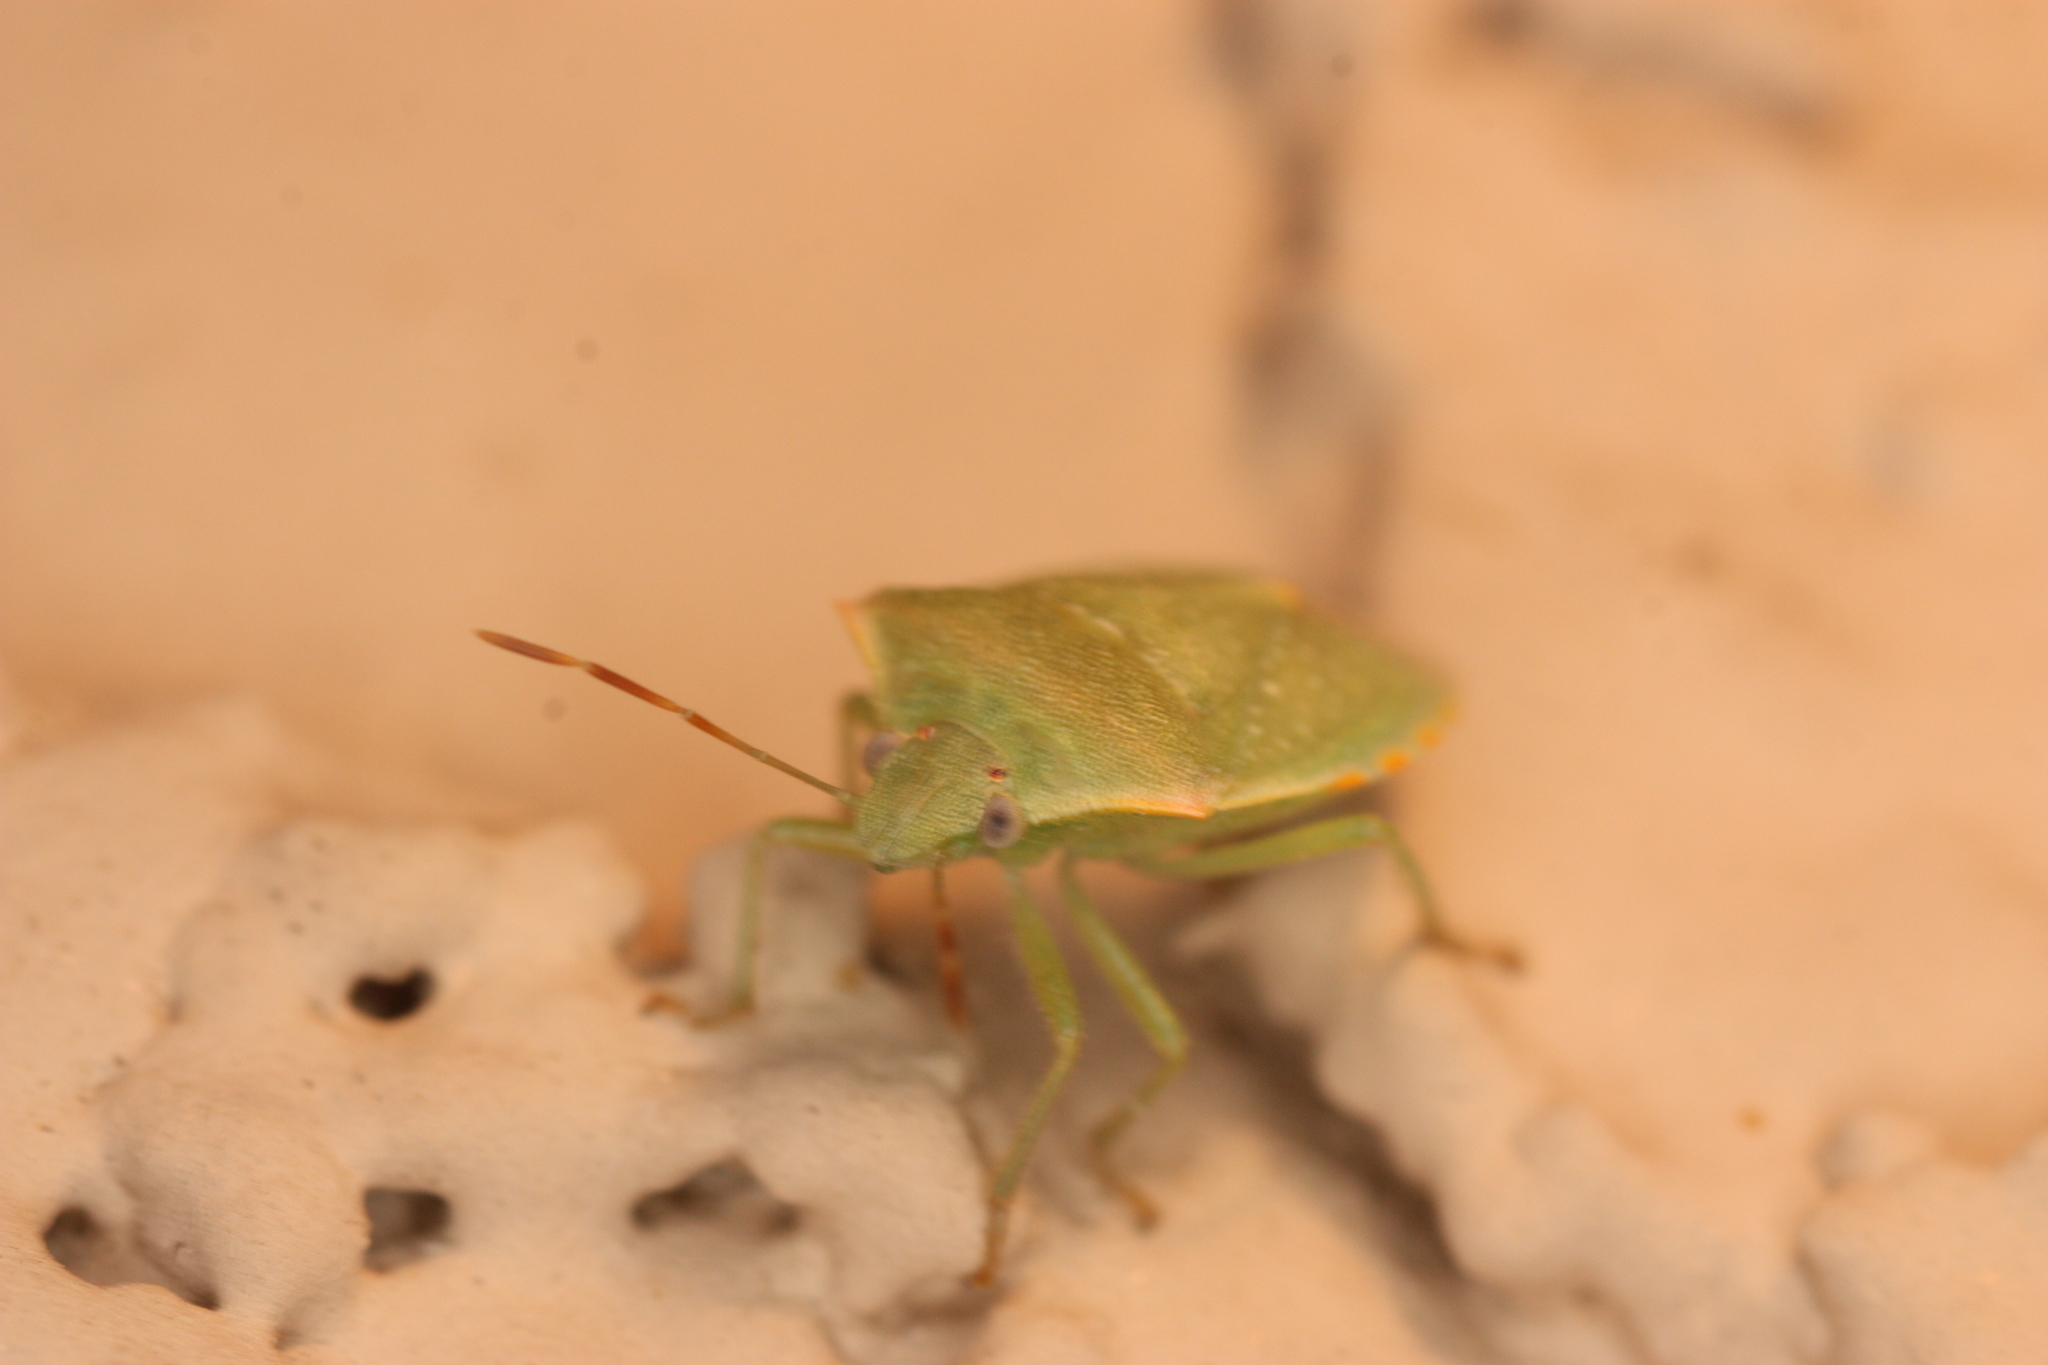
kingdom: Animalia
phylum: Arthropoda
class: Insecta
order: Hemiptera
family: Pentatomidae
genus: Thyanta
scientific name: Thyanta accerra
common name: Stink bug
